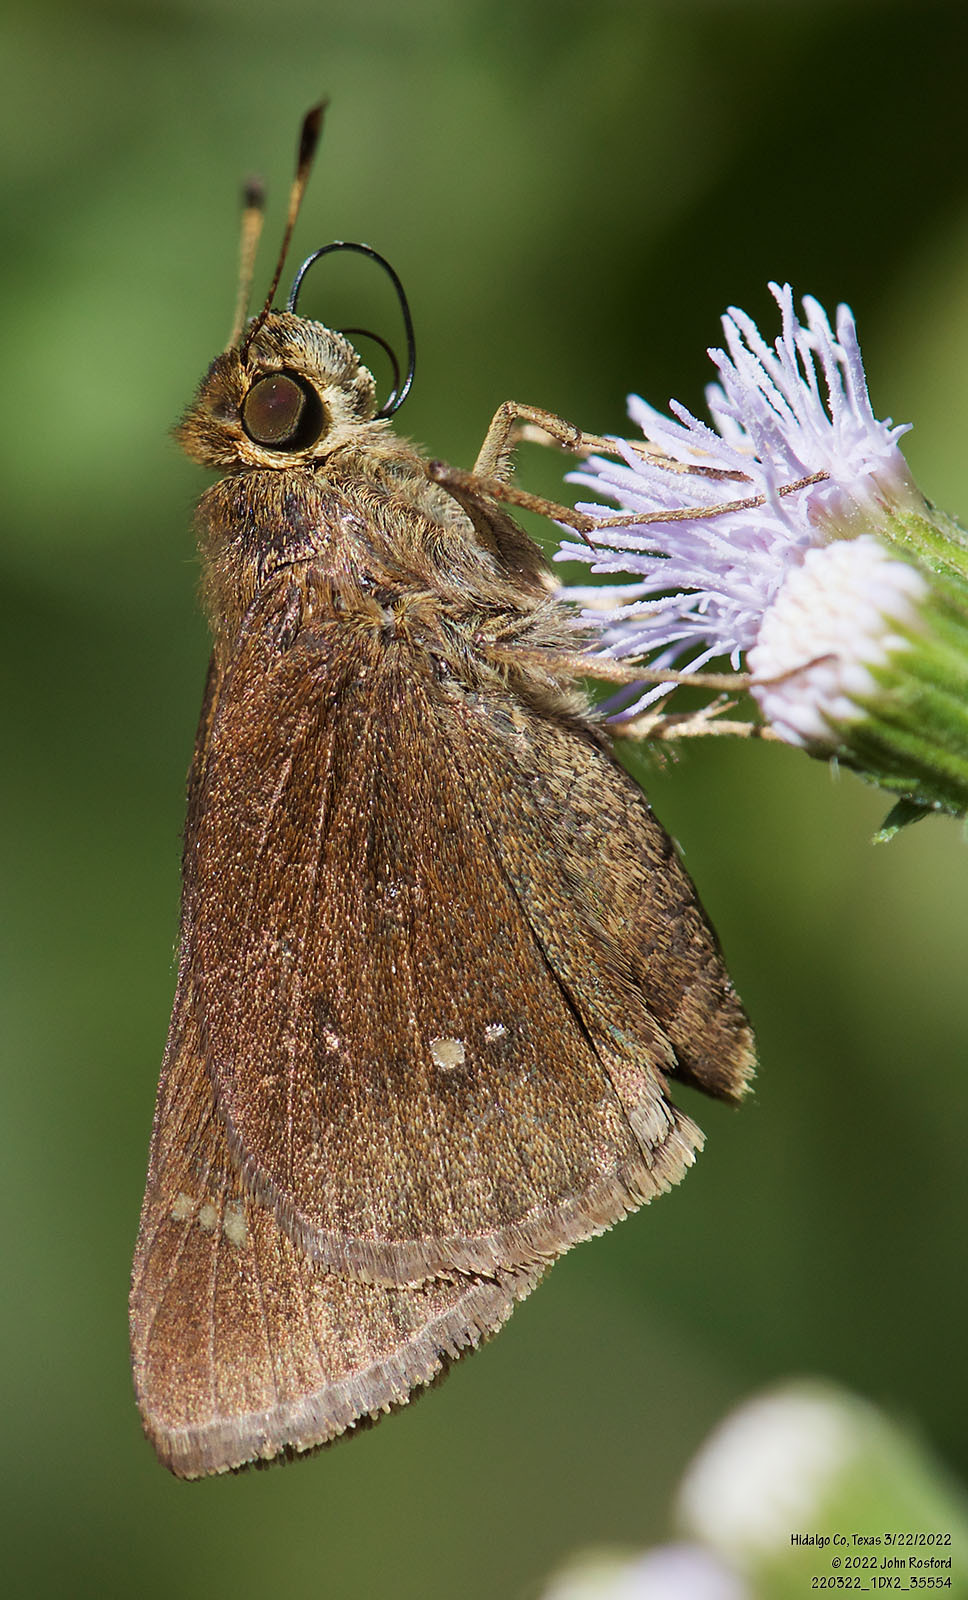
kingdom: Animalia
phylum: Arthropoda
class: Insecta
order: Lepidoptera
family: Hesperiidae
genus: Decinea
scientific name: Decinea percosius
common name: Double-dotted skipper
